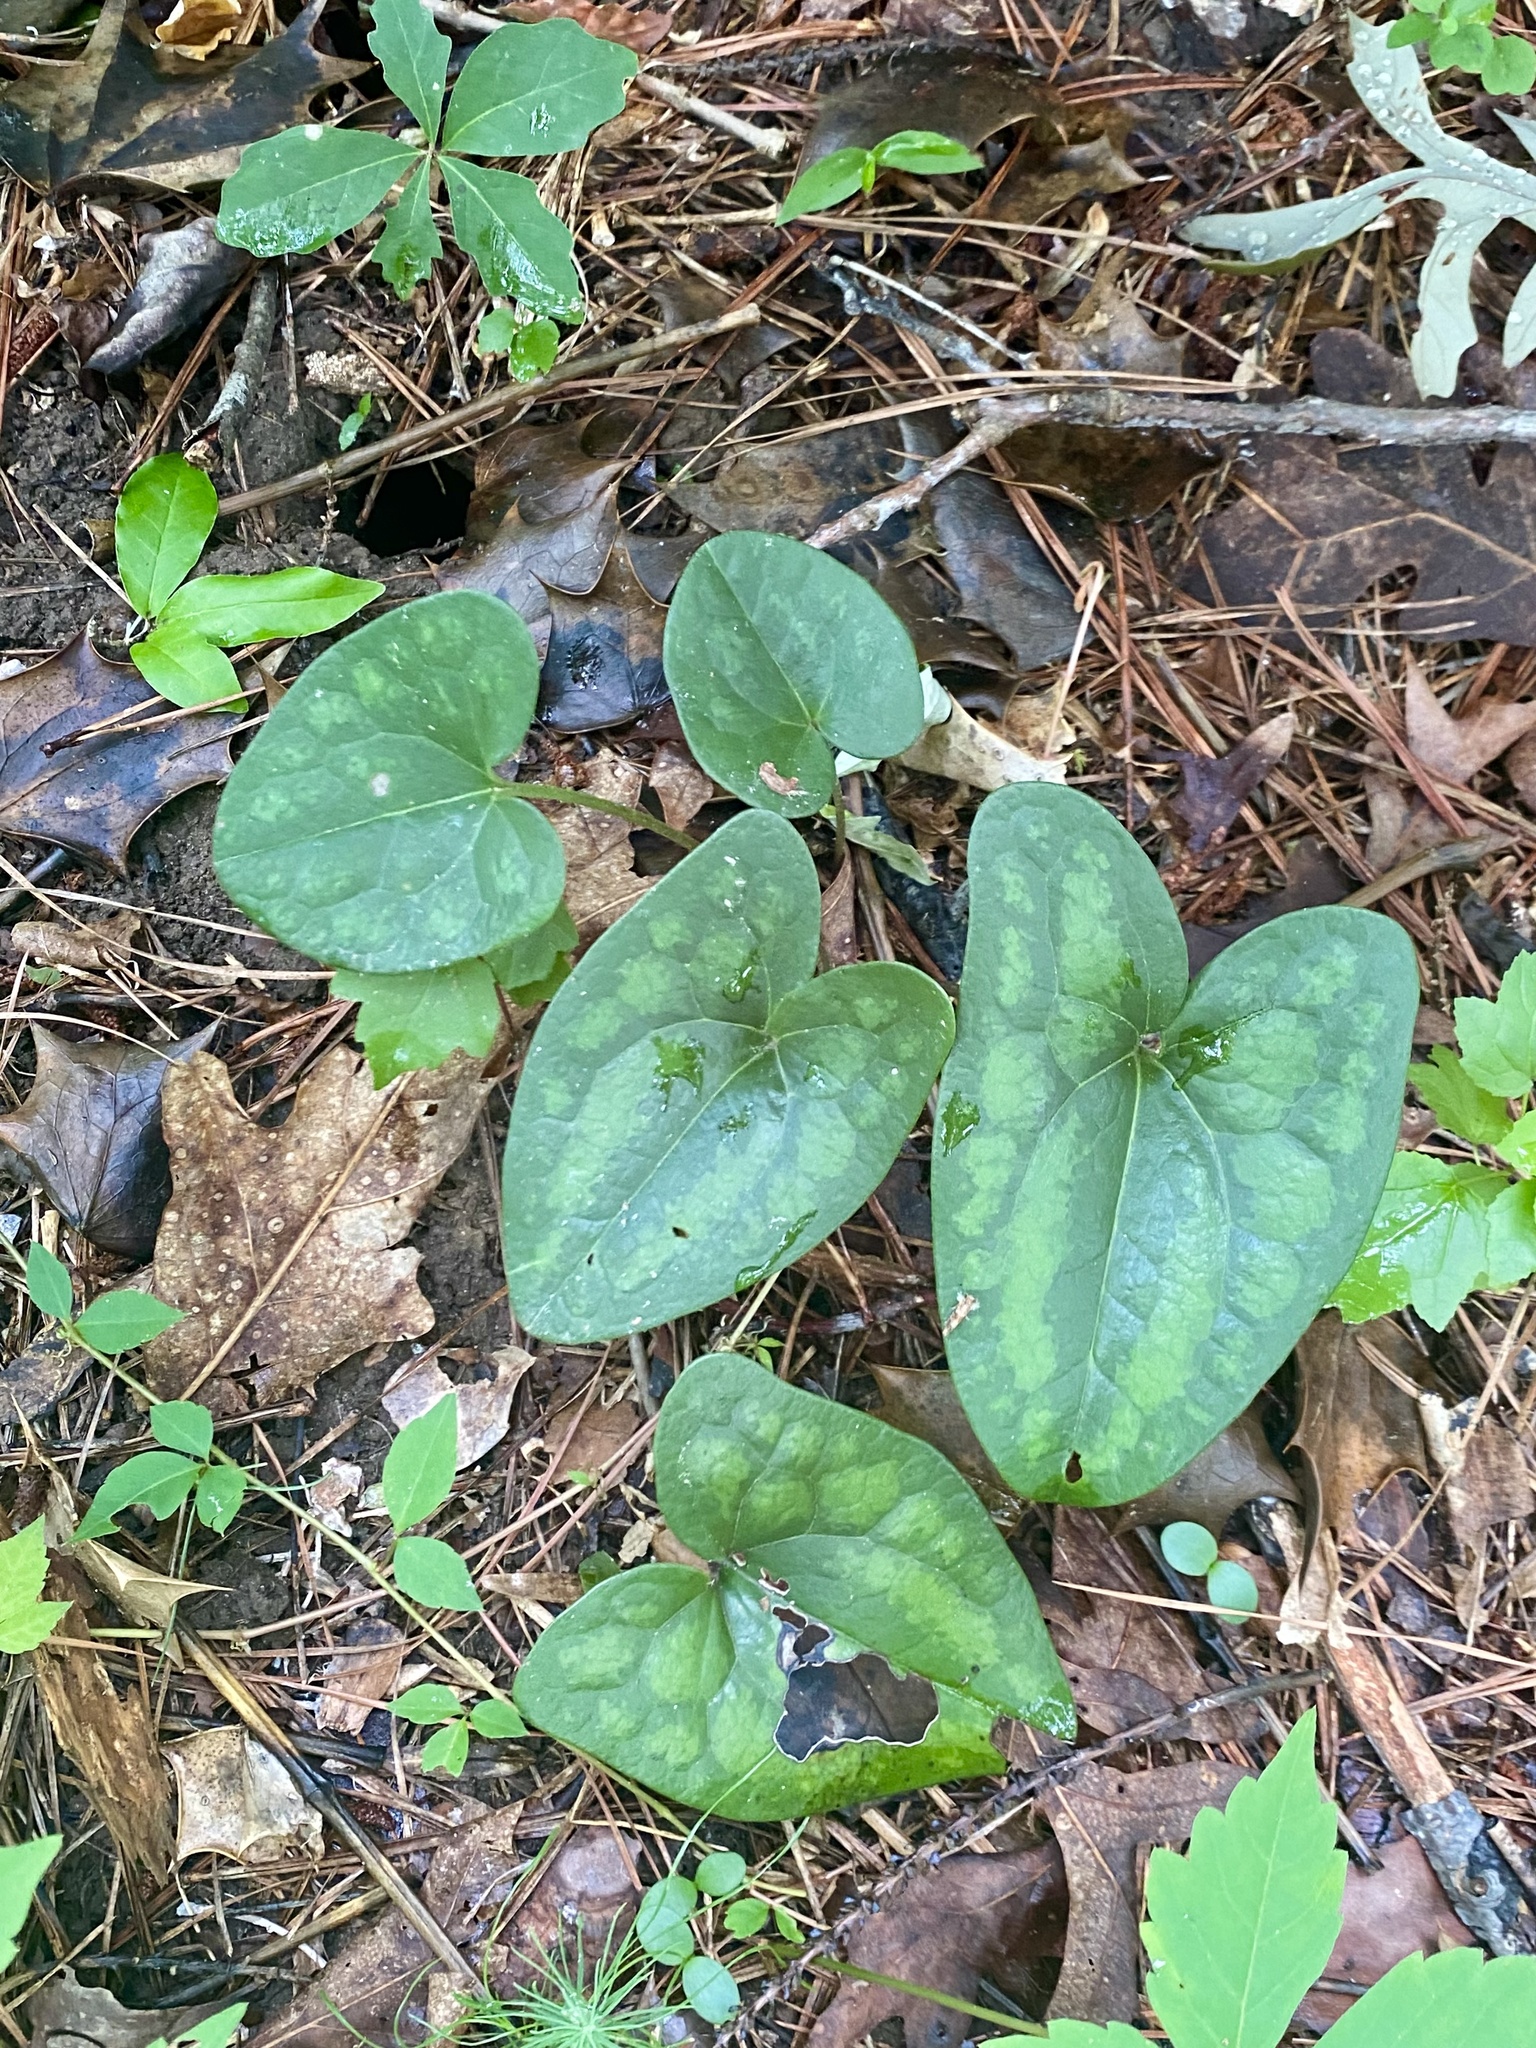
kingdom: Plantae
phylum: Tracheophyta
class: Magnoliopsida
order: Piperales
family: Aristolochiaceae
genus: Hexastylis
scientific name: Hexastylis arifolia
